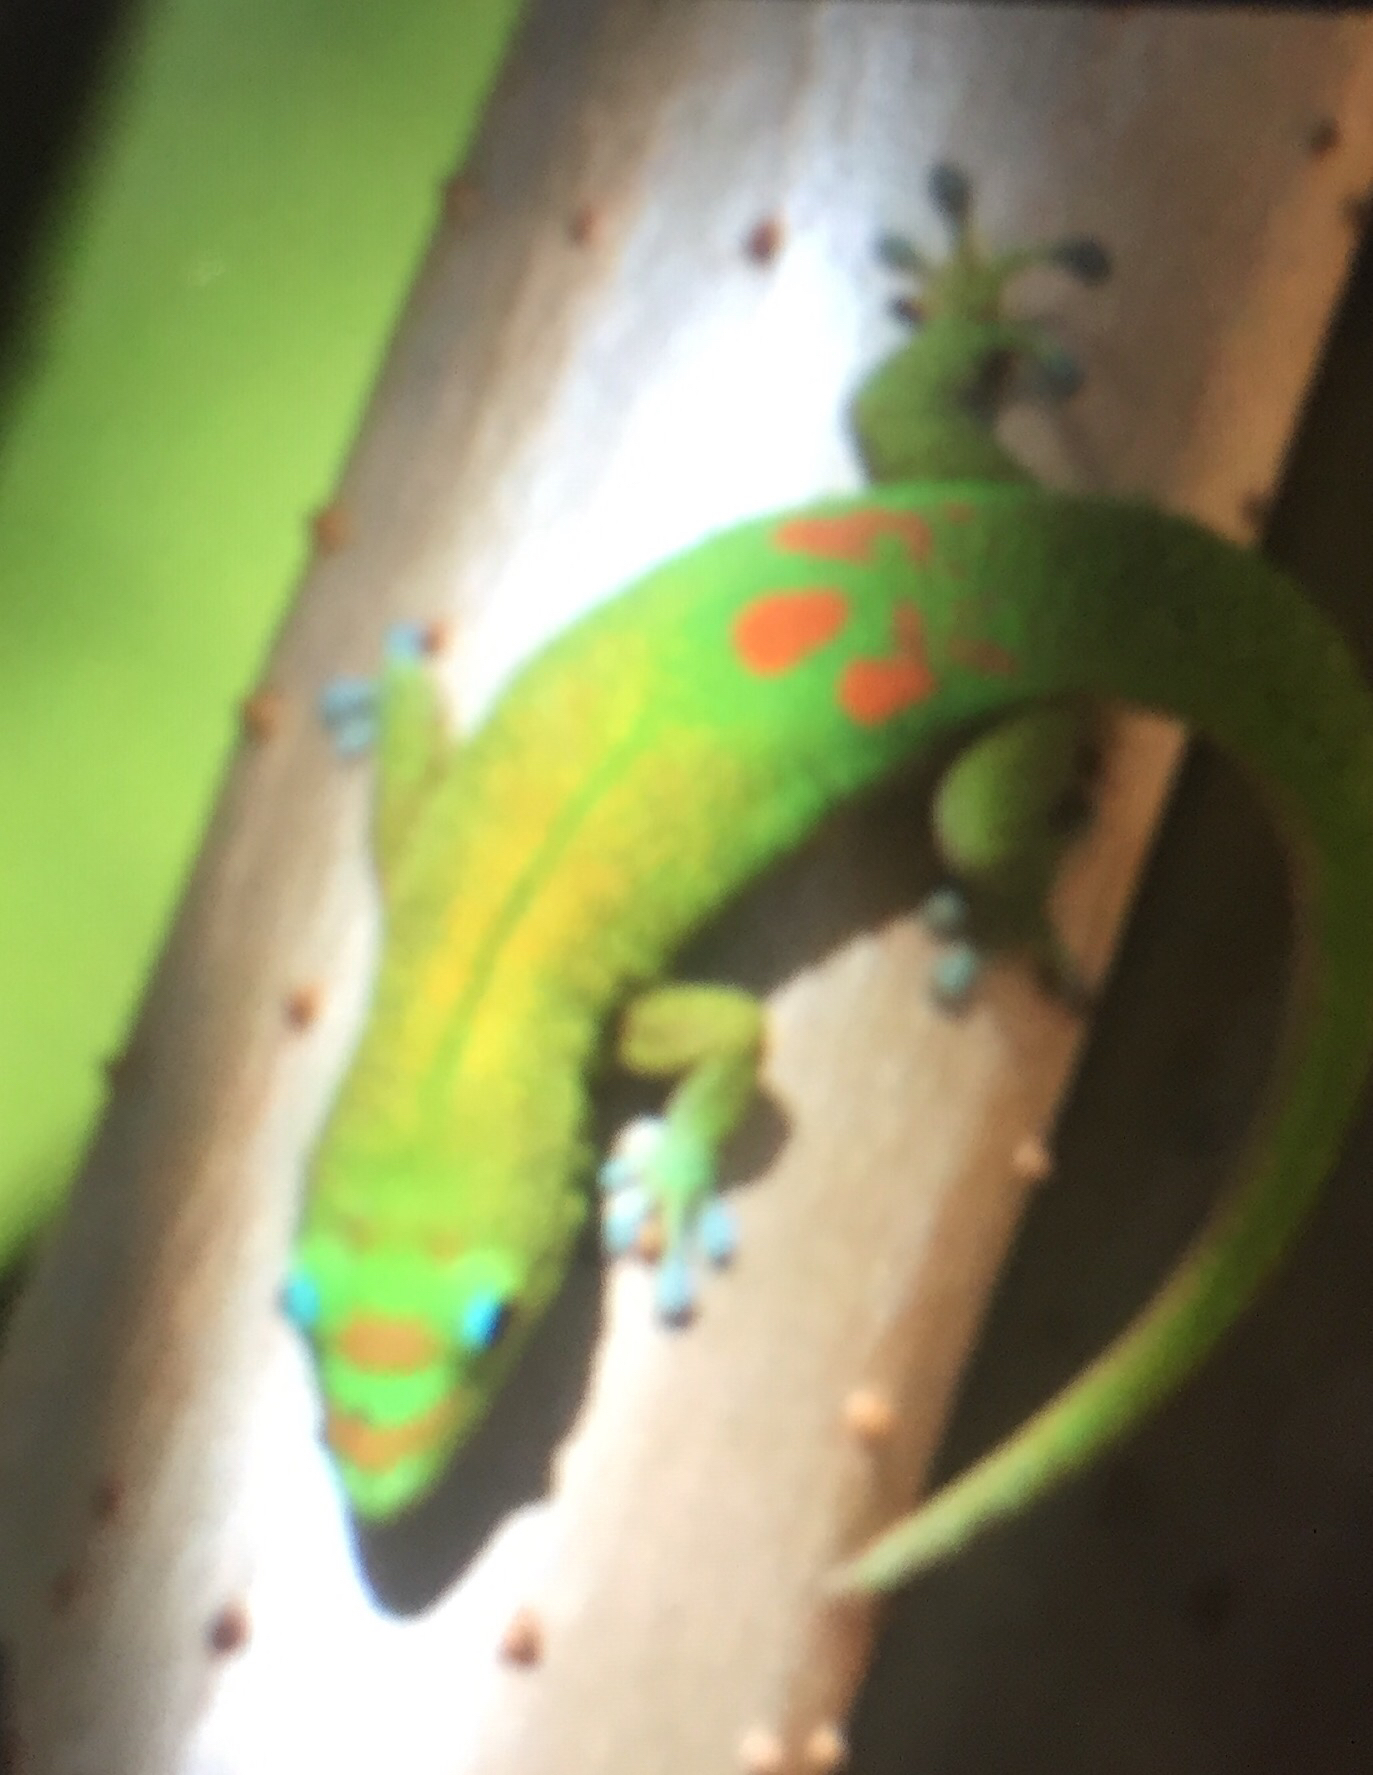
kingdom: Animalia
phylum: Chordata
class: Squamata
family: Gekkonidae
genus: Phelsuma
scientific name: Phelsuma laticauda
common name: Gold dust day gecko
